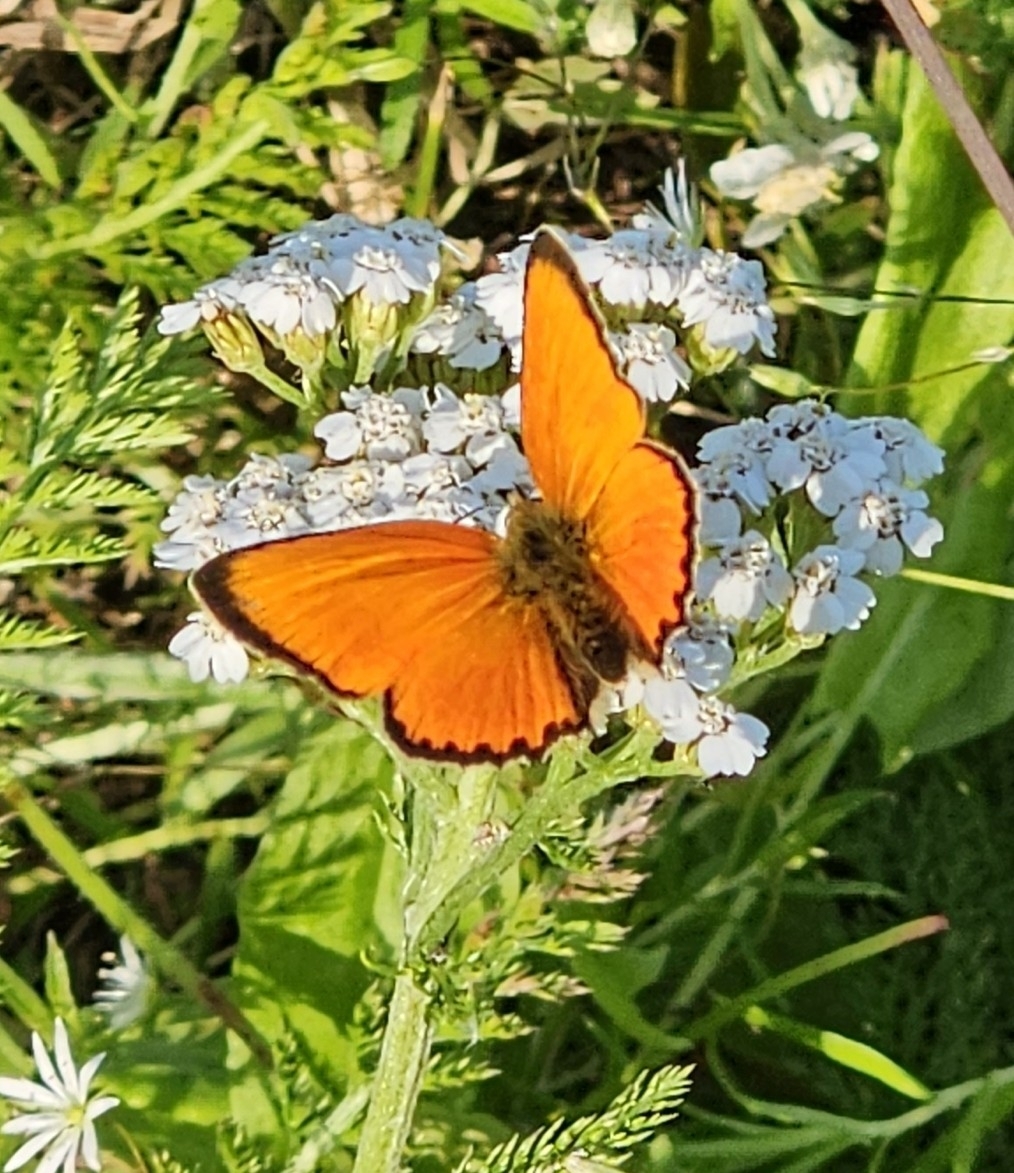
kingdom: Animalia
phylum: Arthropoda
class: Insecta
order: Lepidoptera
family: Lycaenidae
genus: Lycaena
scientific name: Lycaena virgaureae
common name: Scarce copper
